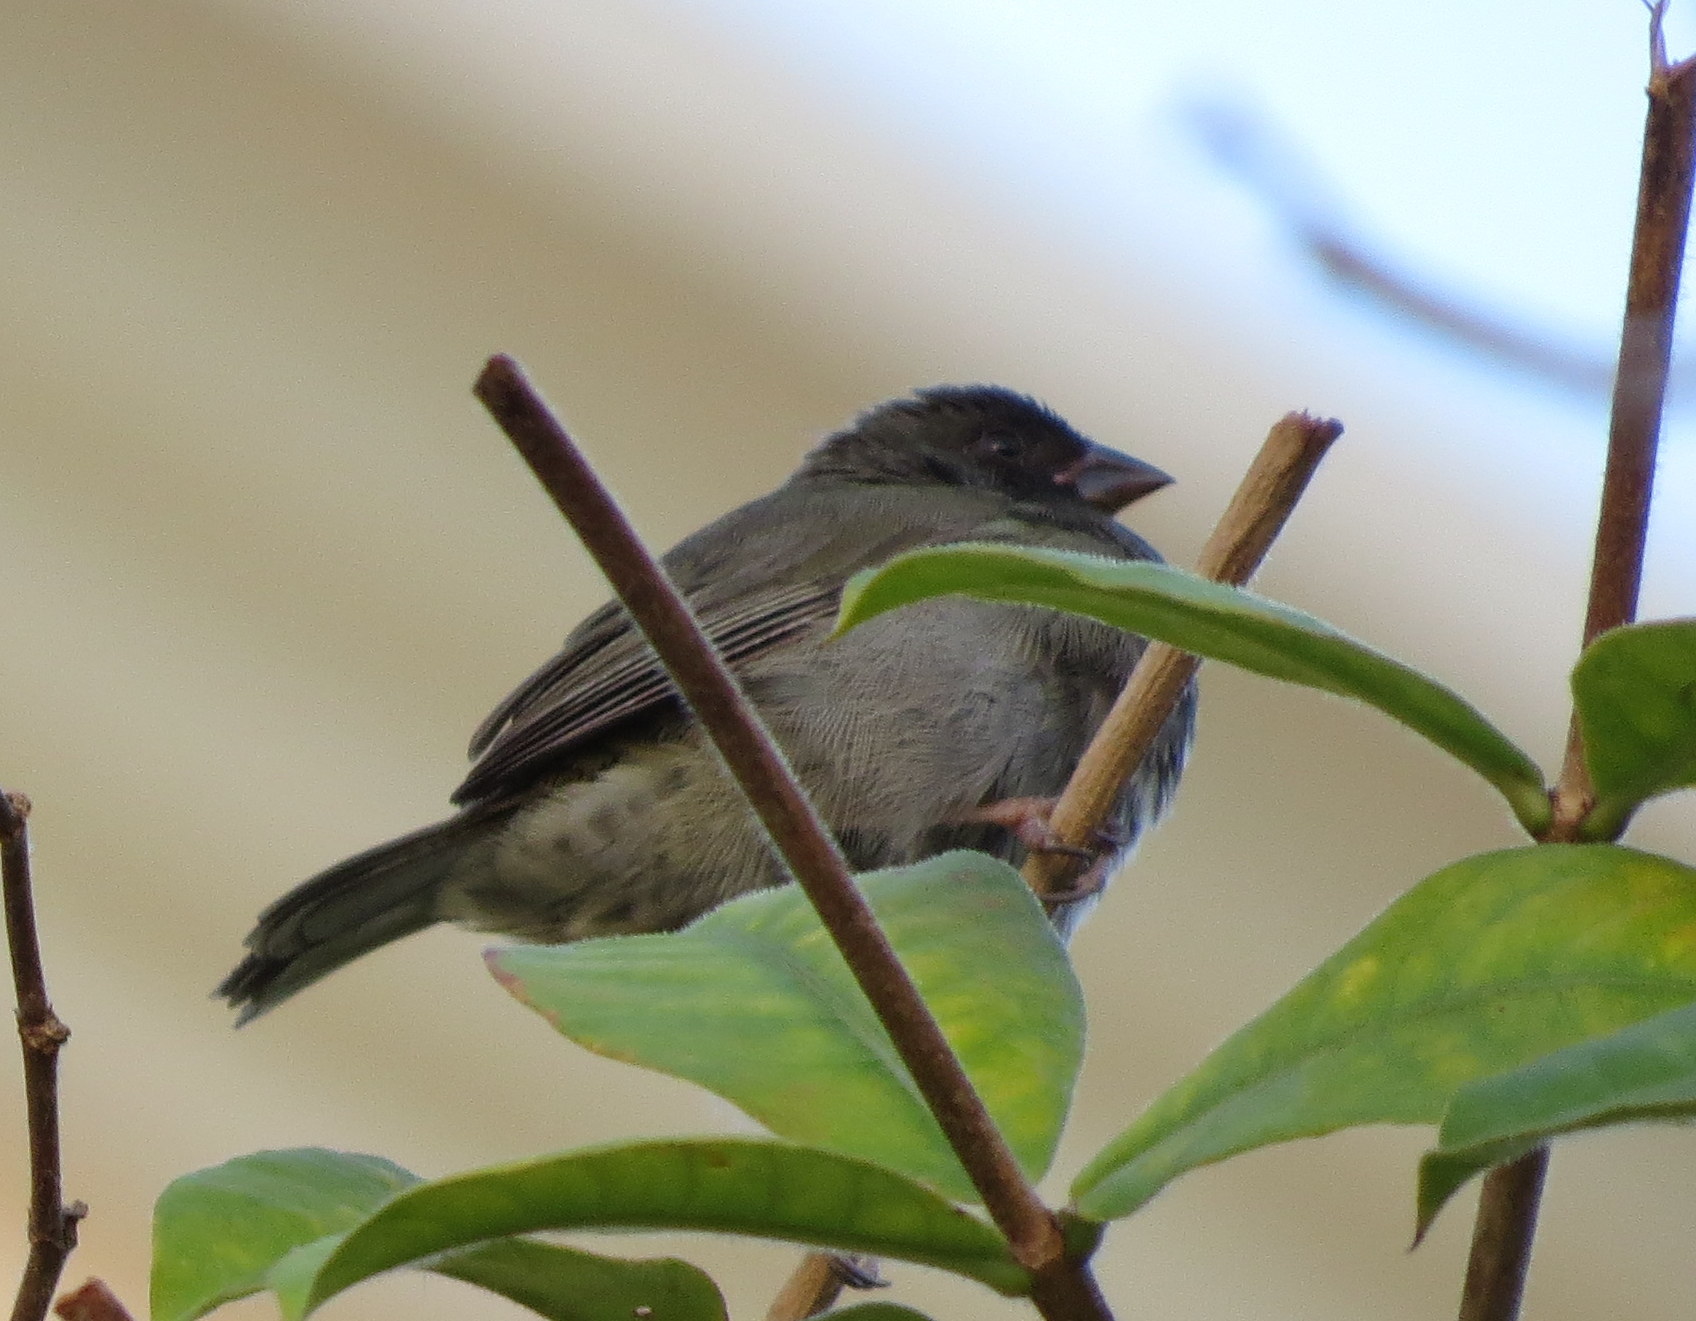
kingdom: Animalia
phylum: Chordata
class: Aves
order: Passeriformes
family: Thraupidae
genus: Melanospiza
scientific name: Melanospiza bicolor
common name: Black-faced grassquit
